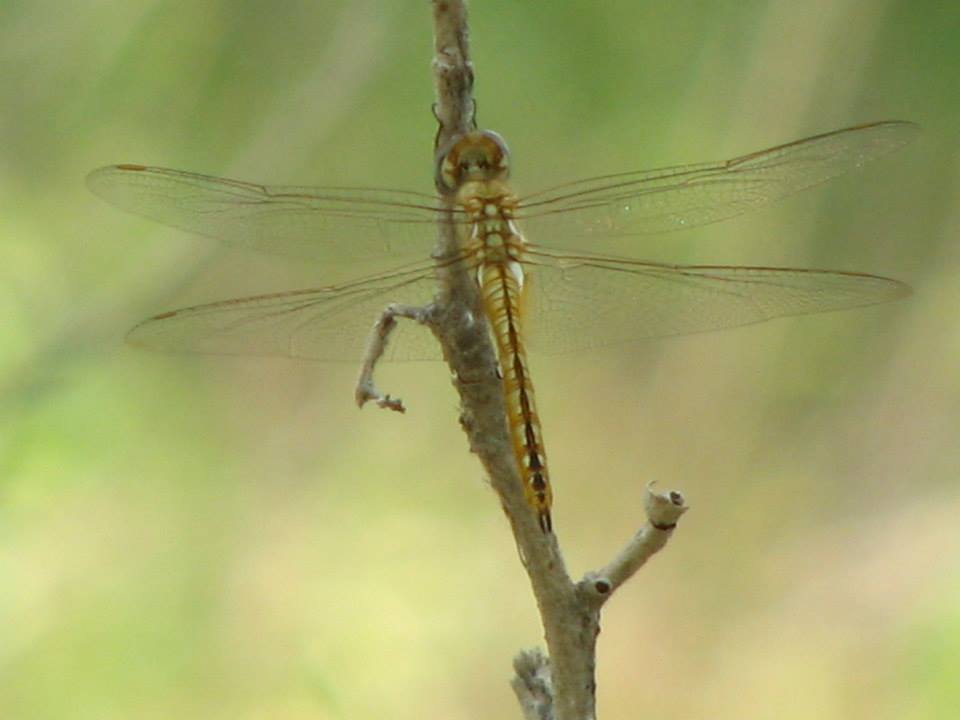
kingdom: Animalia
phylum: Arthropoda
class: Insecta
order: Odonata
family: Libellulidae
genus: Pantala
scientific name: Pantala flavescens
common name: Wandering glider
